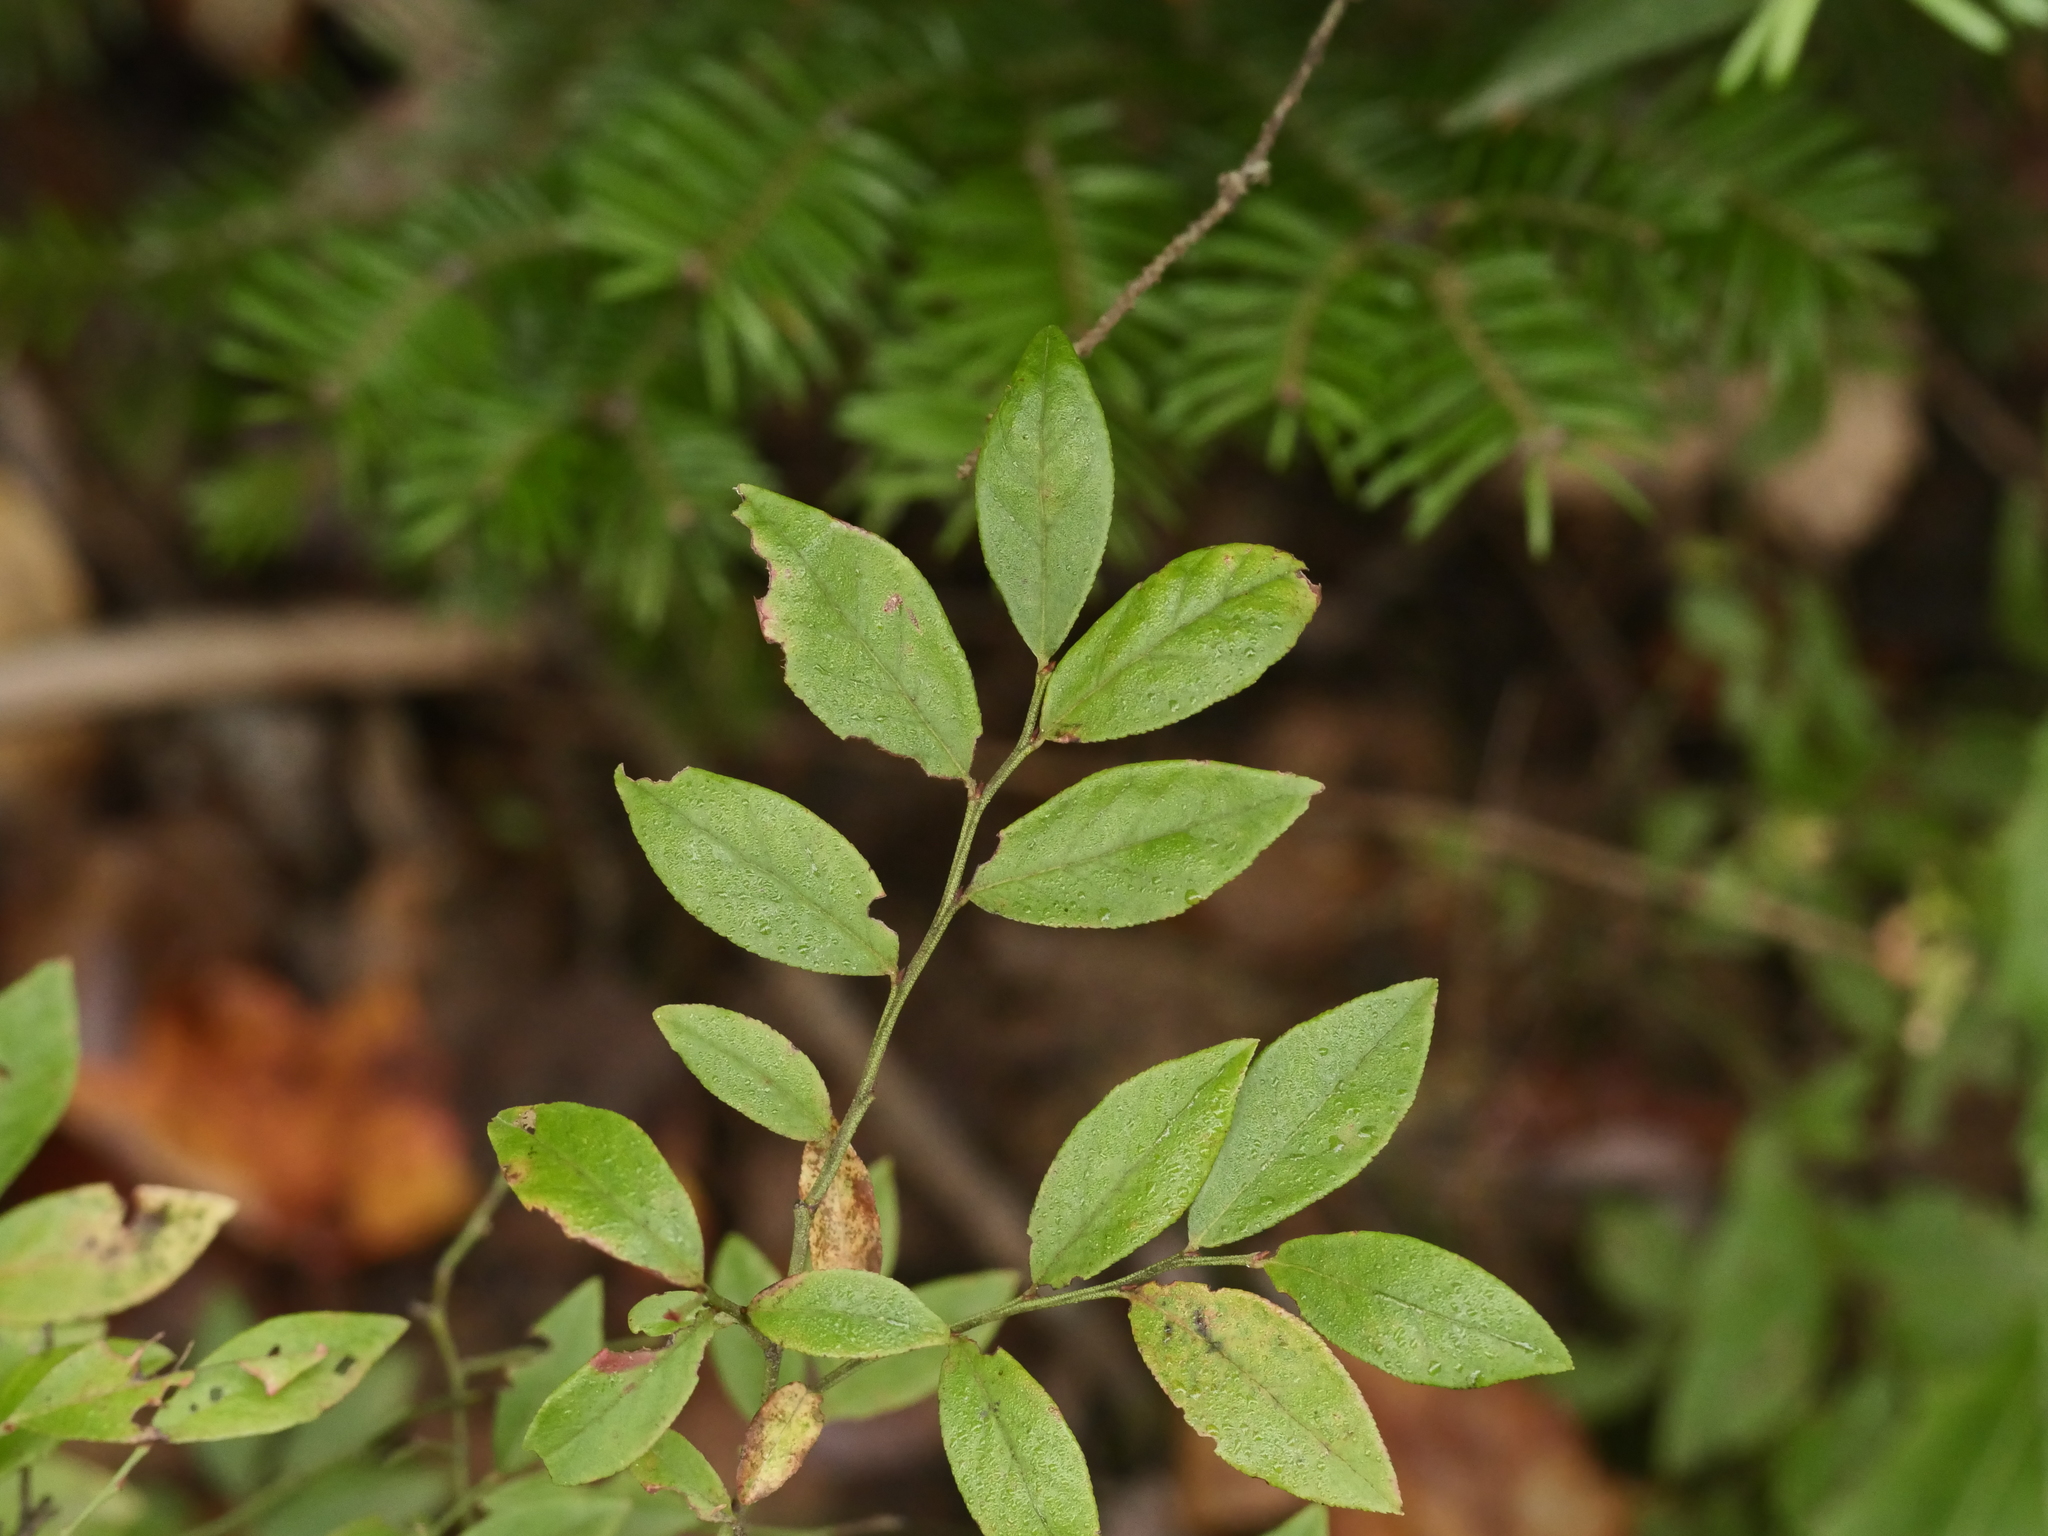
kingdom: Plantae
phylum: Tracheophyta
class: Magnoliopsida
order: Ericales
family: Ericaceae
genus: Vaccinium
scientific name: Vaccinium angustifolium
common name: Early lowbush blueberry
